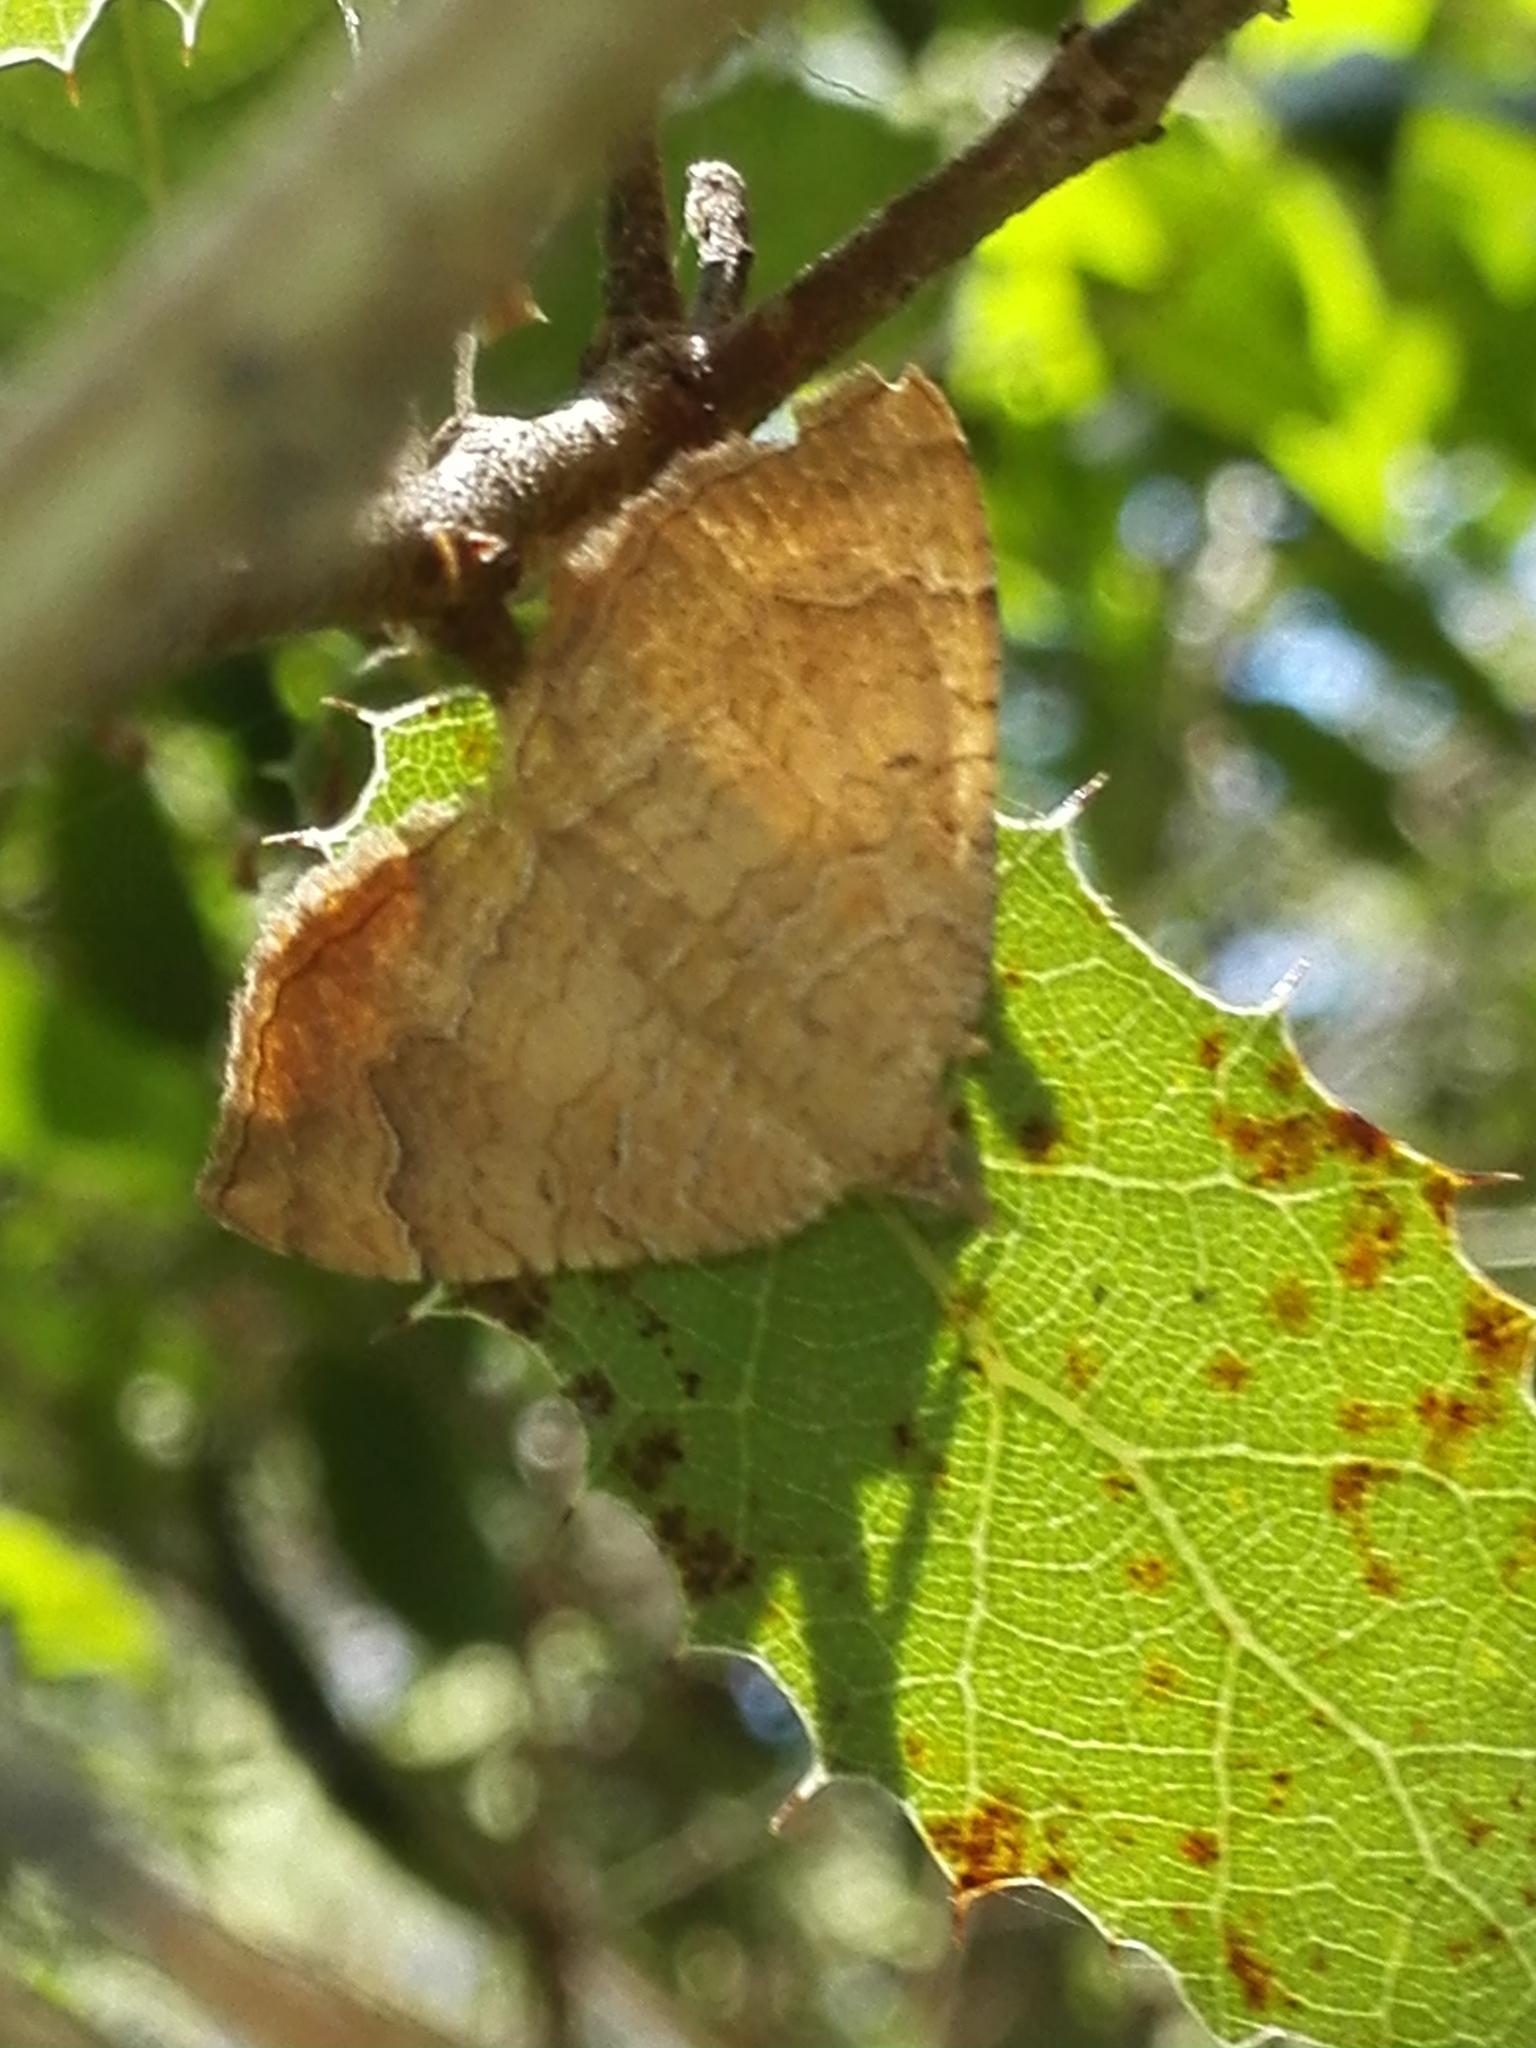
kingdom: Animalia
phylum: Arthropoda
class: Insecta
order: Lepidoptera
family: Geometridae
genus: Camptogramma
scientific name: Camptogramma bilineata
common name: Yellow shell
